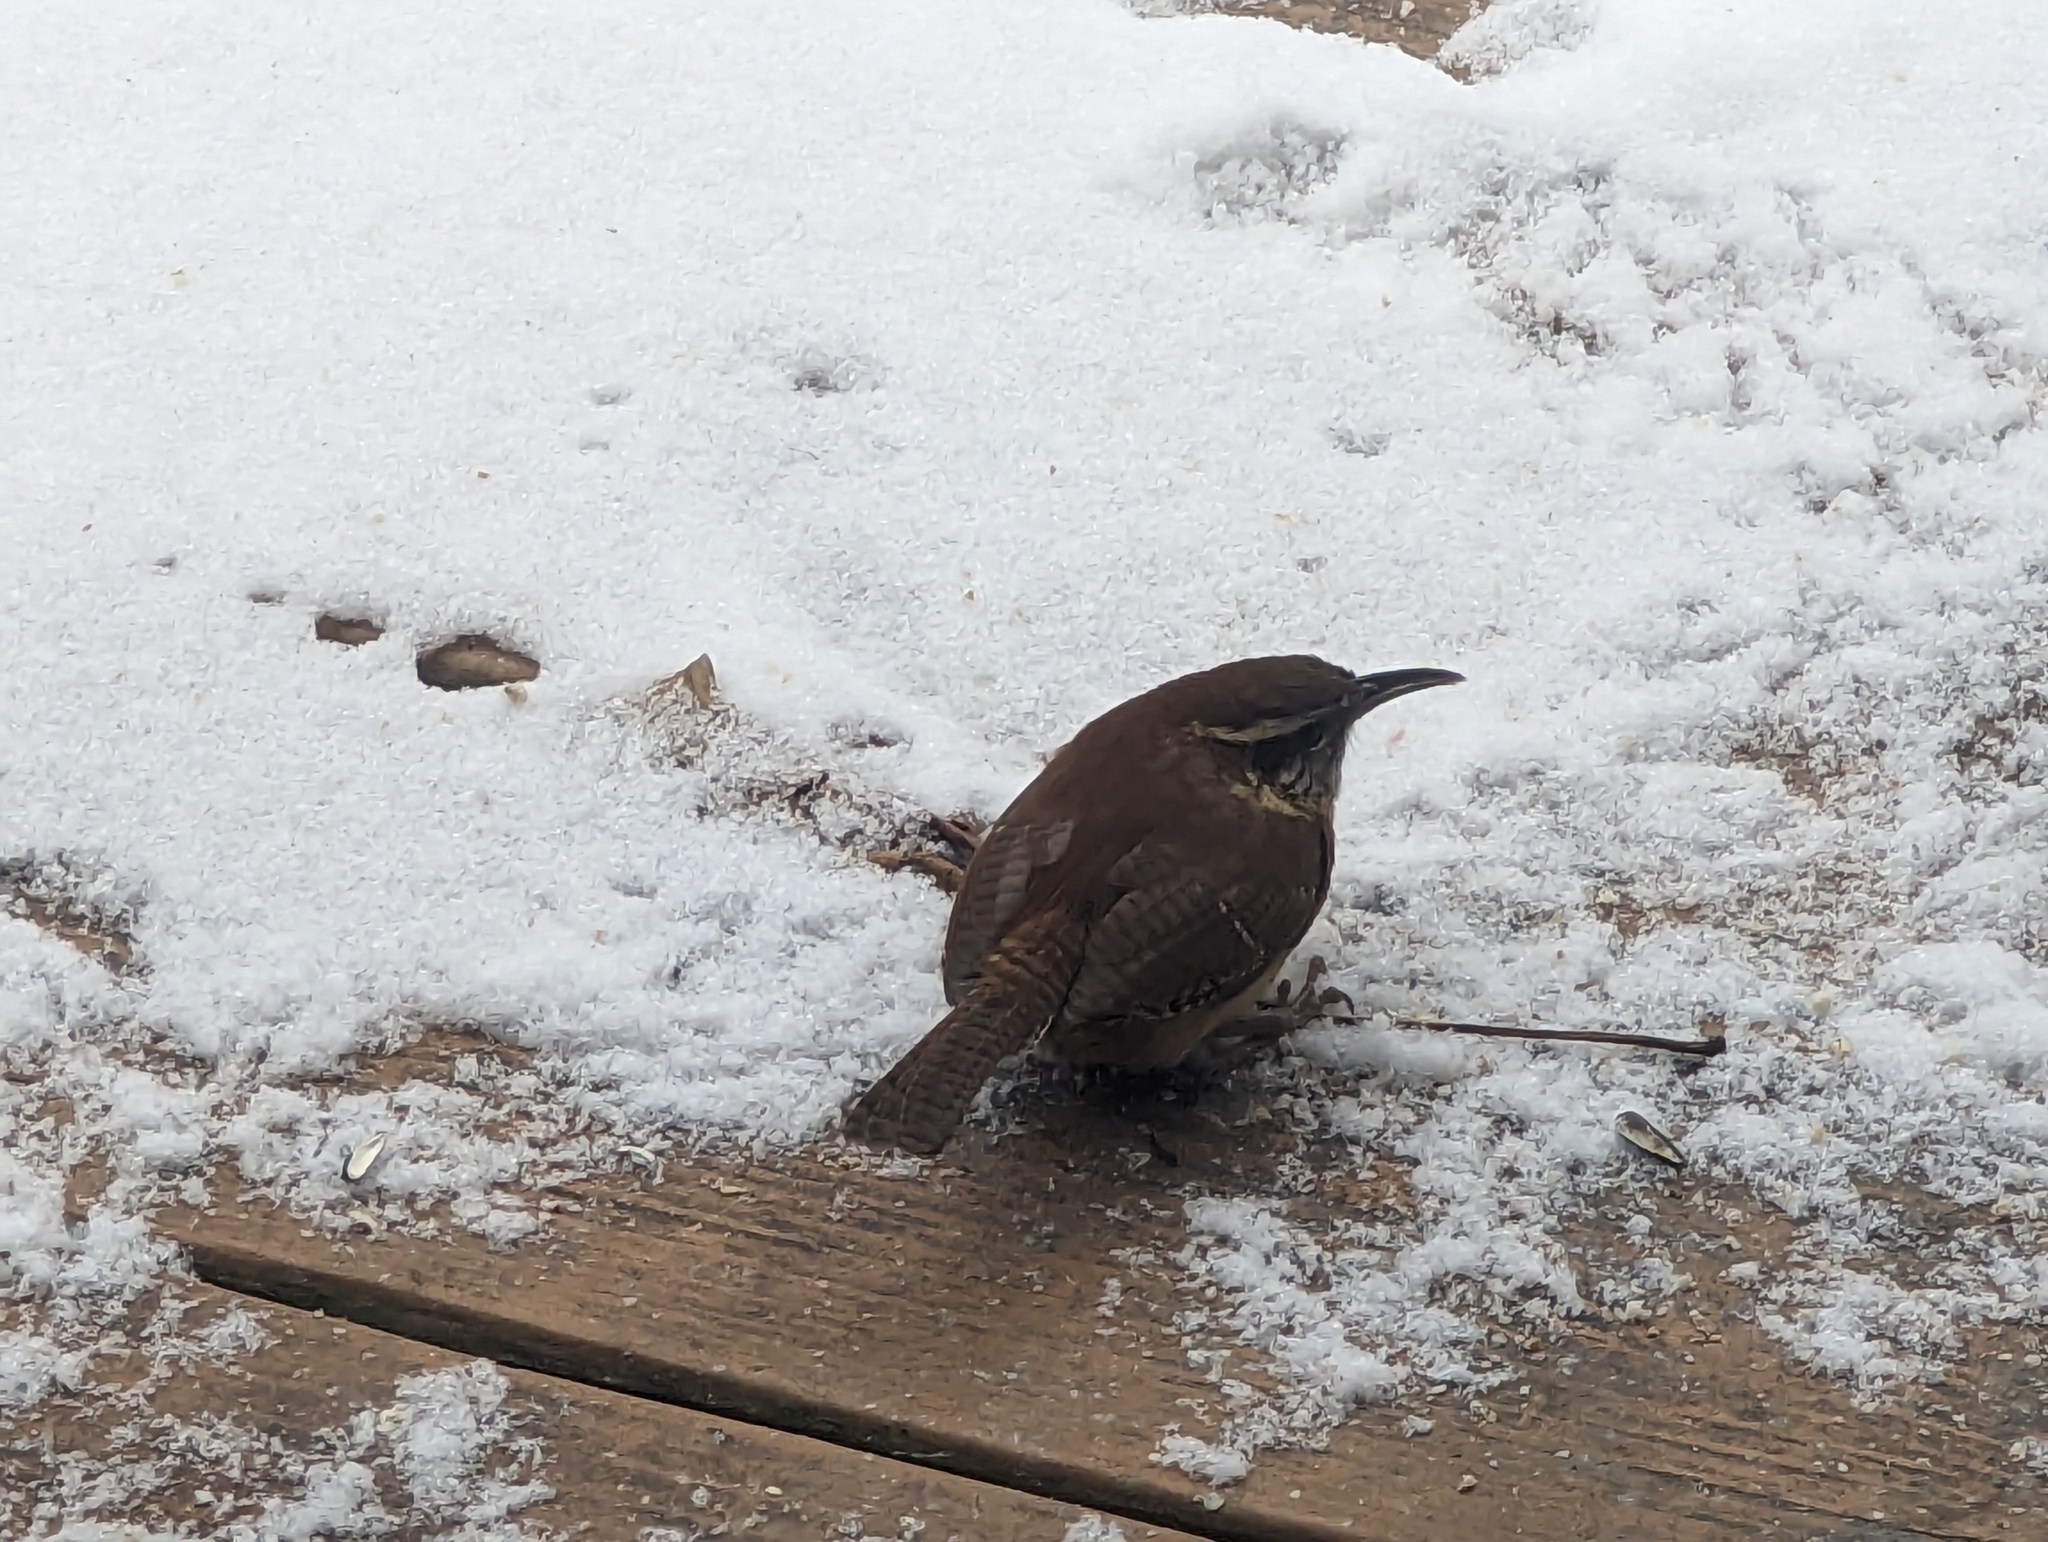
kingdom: Animalia
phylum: Chordata
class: Aves
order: Passeriformes
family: Troglodytidae
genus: Thryothorus
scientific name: Thryothorus ludovicianus
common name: Carolina wren
